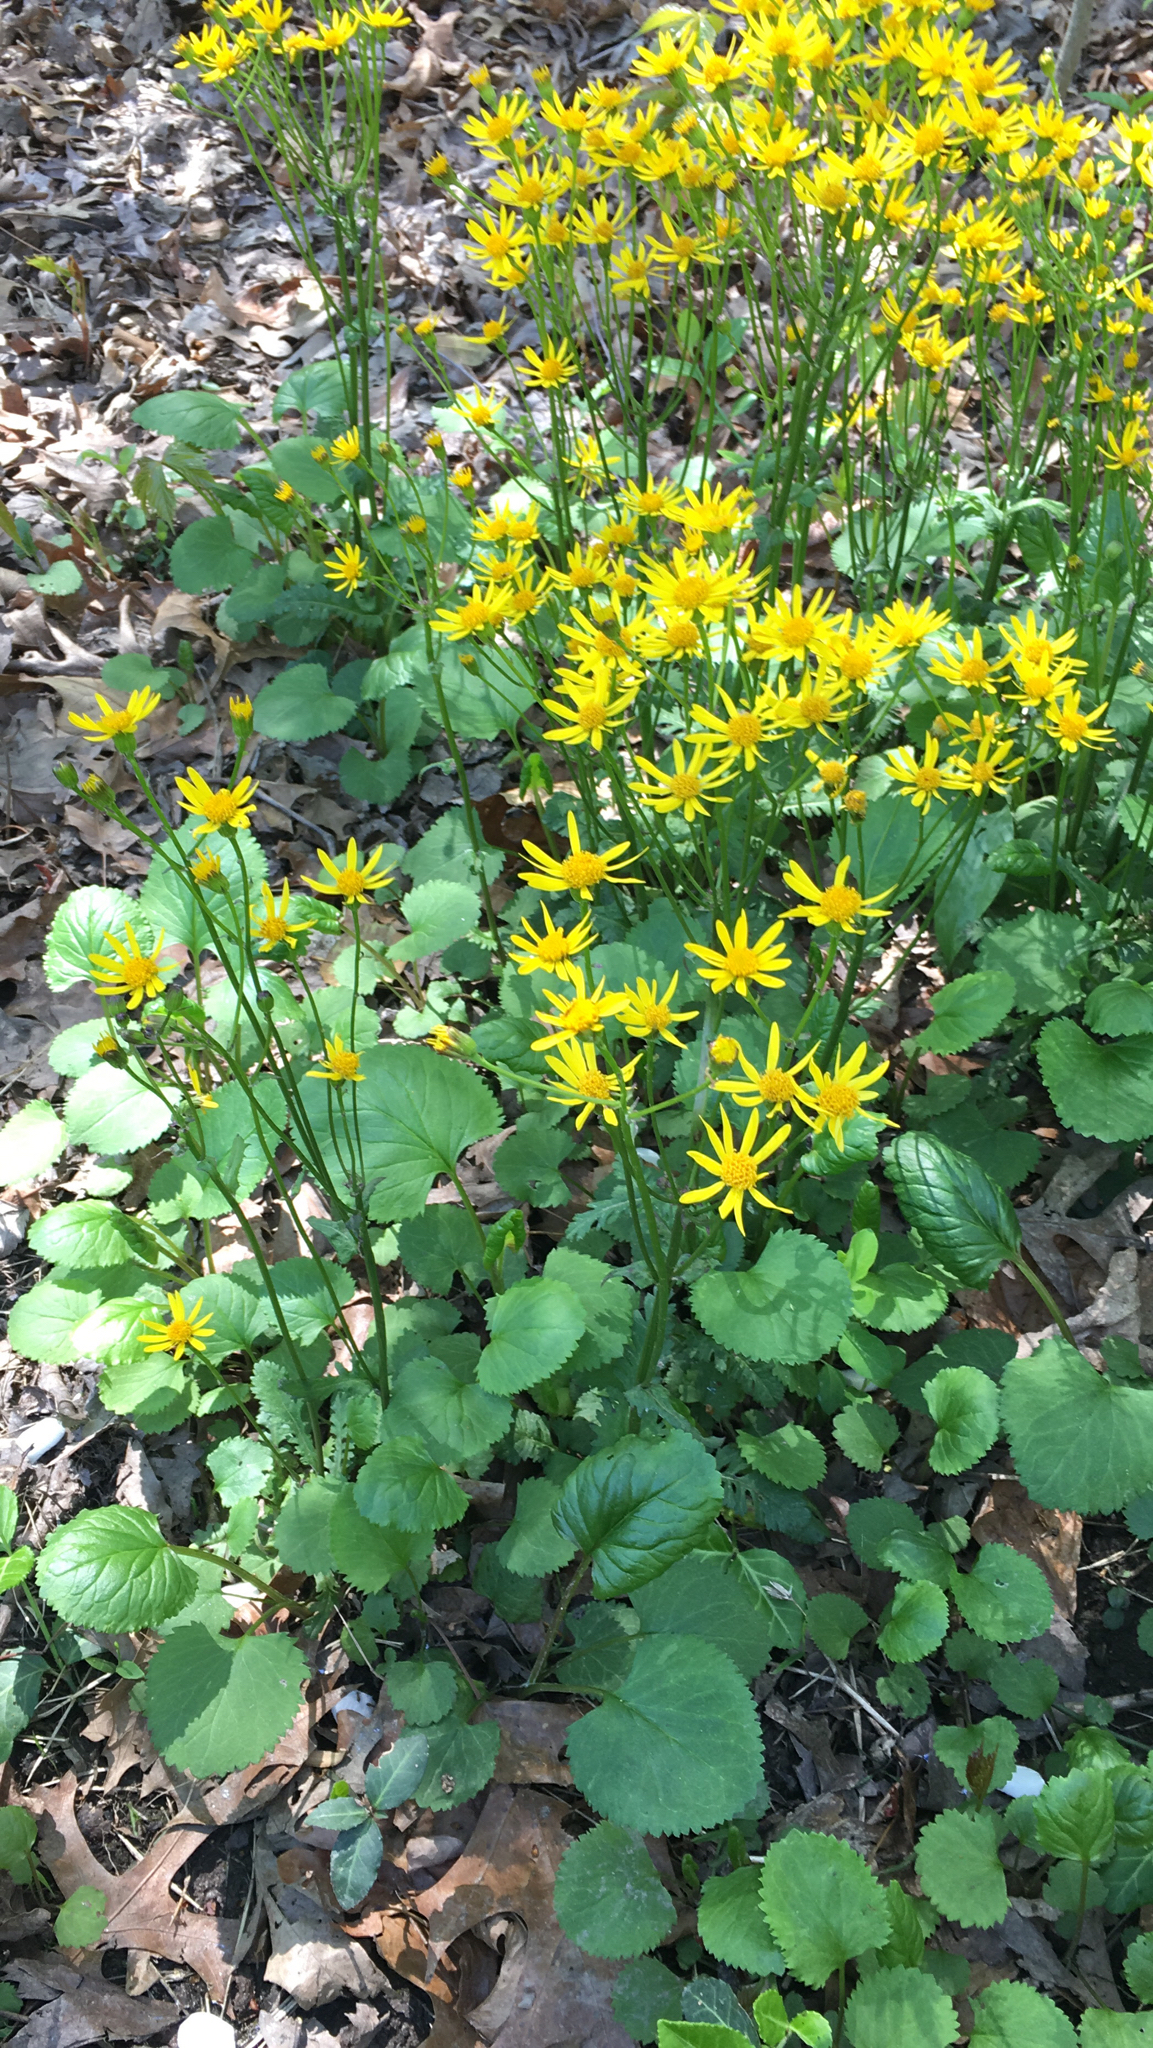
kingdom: Plantae
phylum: Tracheophyta
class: Magnoliopsida
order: Asterales
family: Asteraceae
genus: Packera
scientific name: Packera aurea
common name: Golden groundsel
